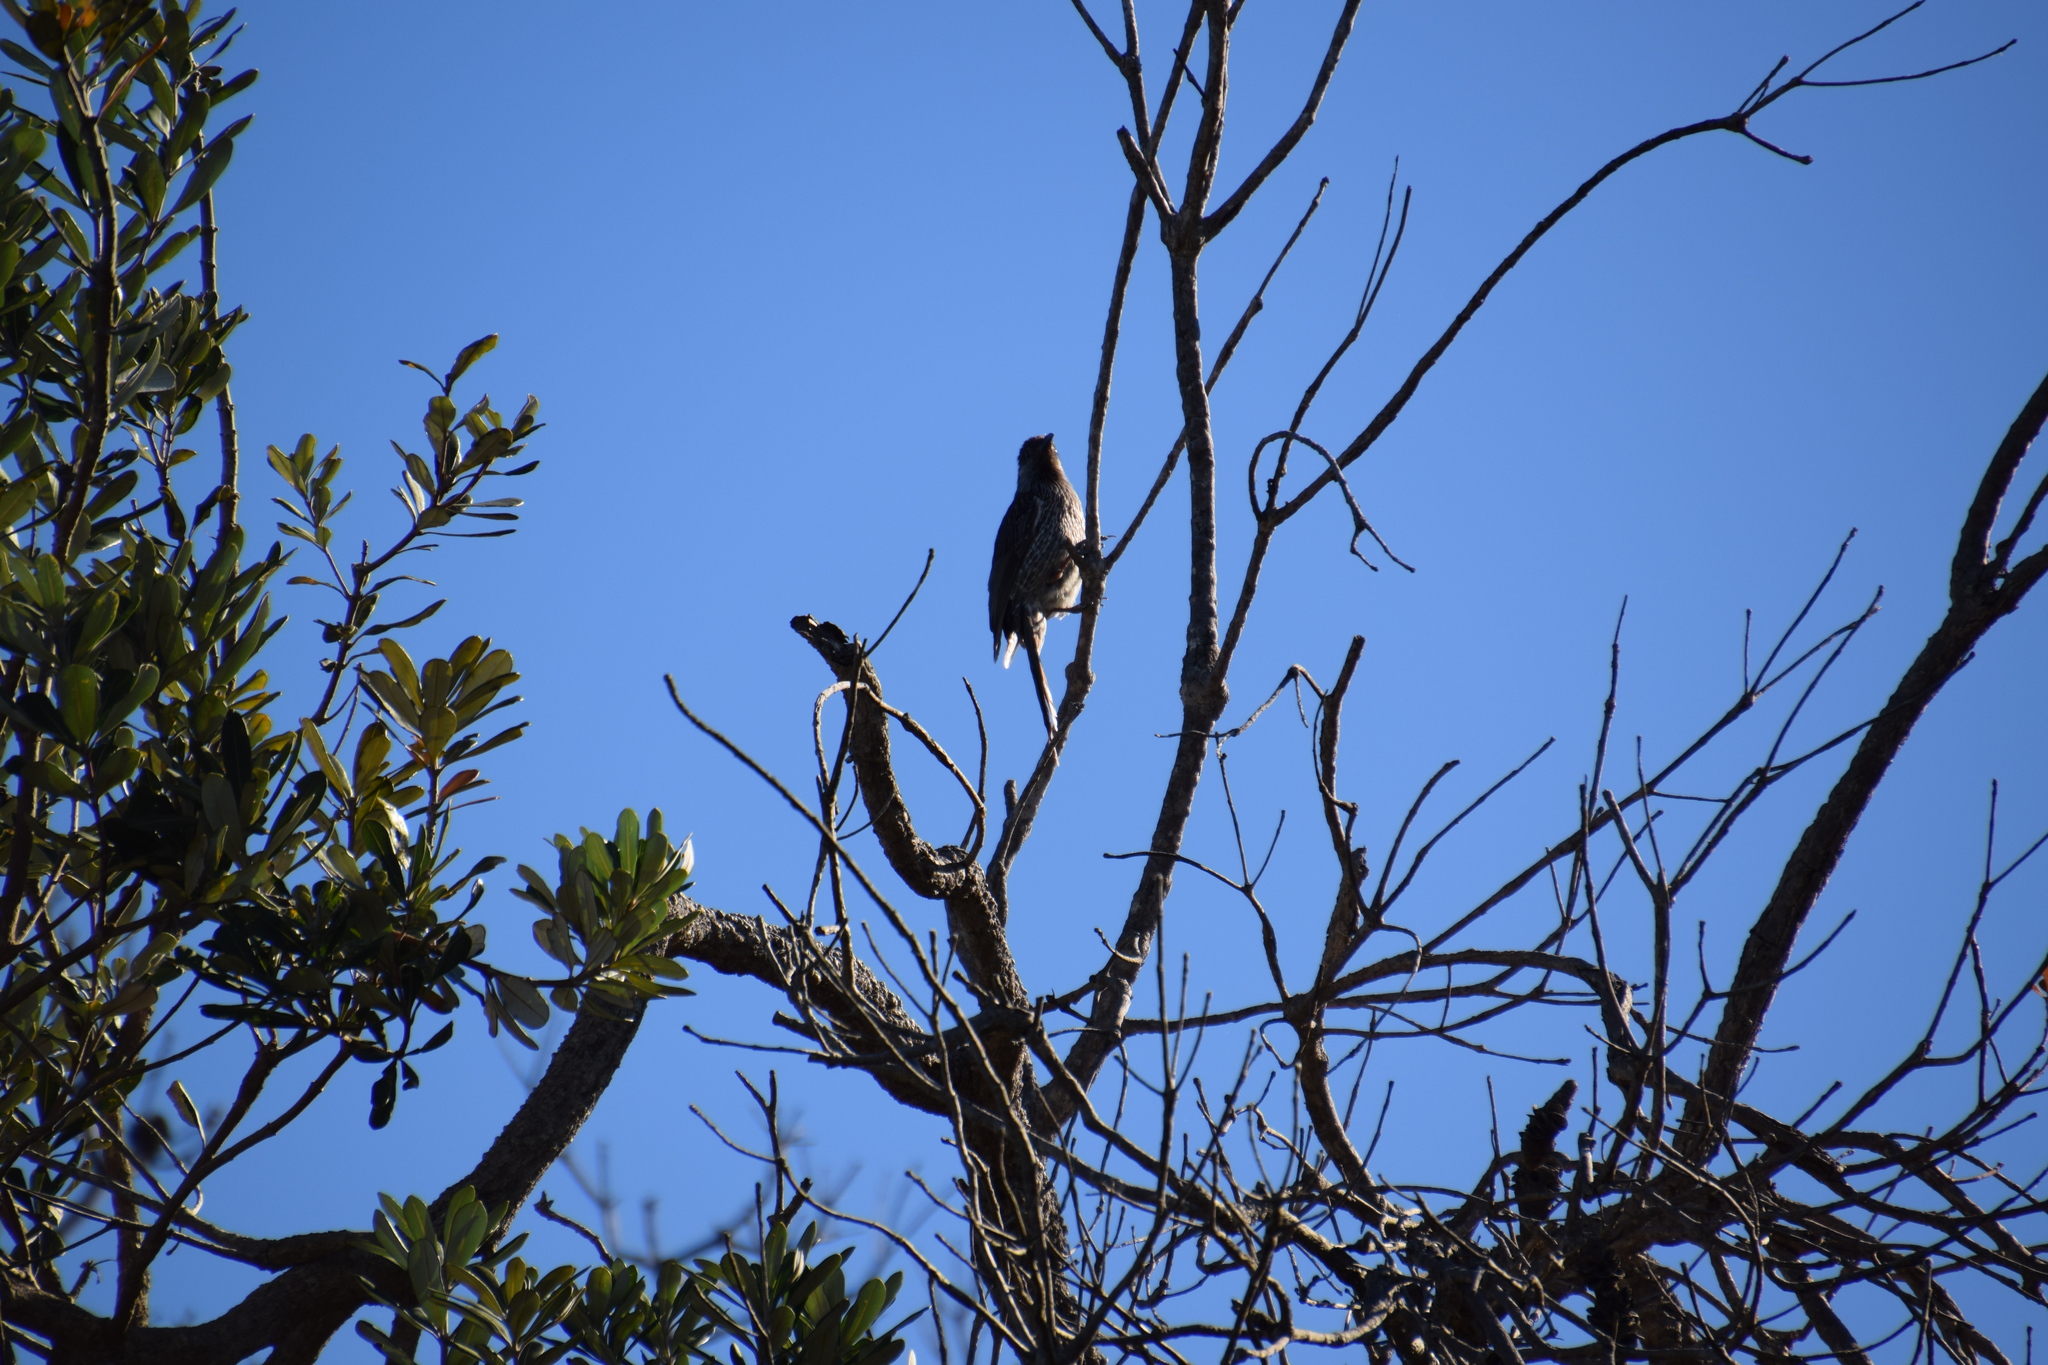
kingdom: Animalia
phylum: Chordata
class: Aves
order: Passeriformes
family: Meliphagidae
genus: Anthochaera
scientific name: Anthochaera chrysoptera
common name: Little wattlebird
